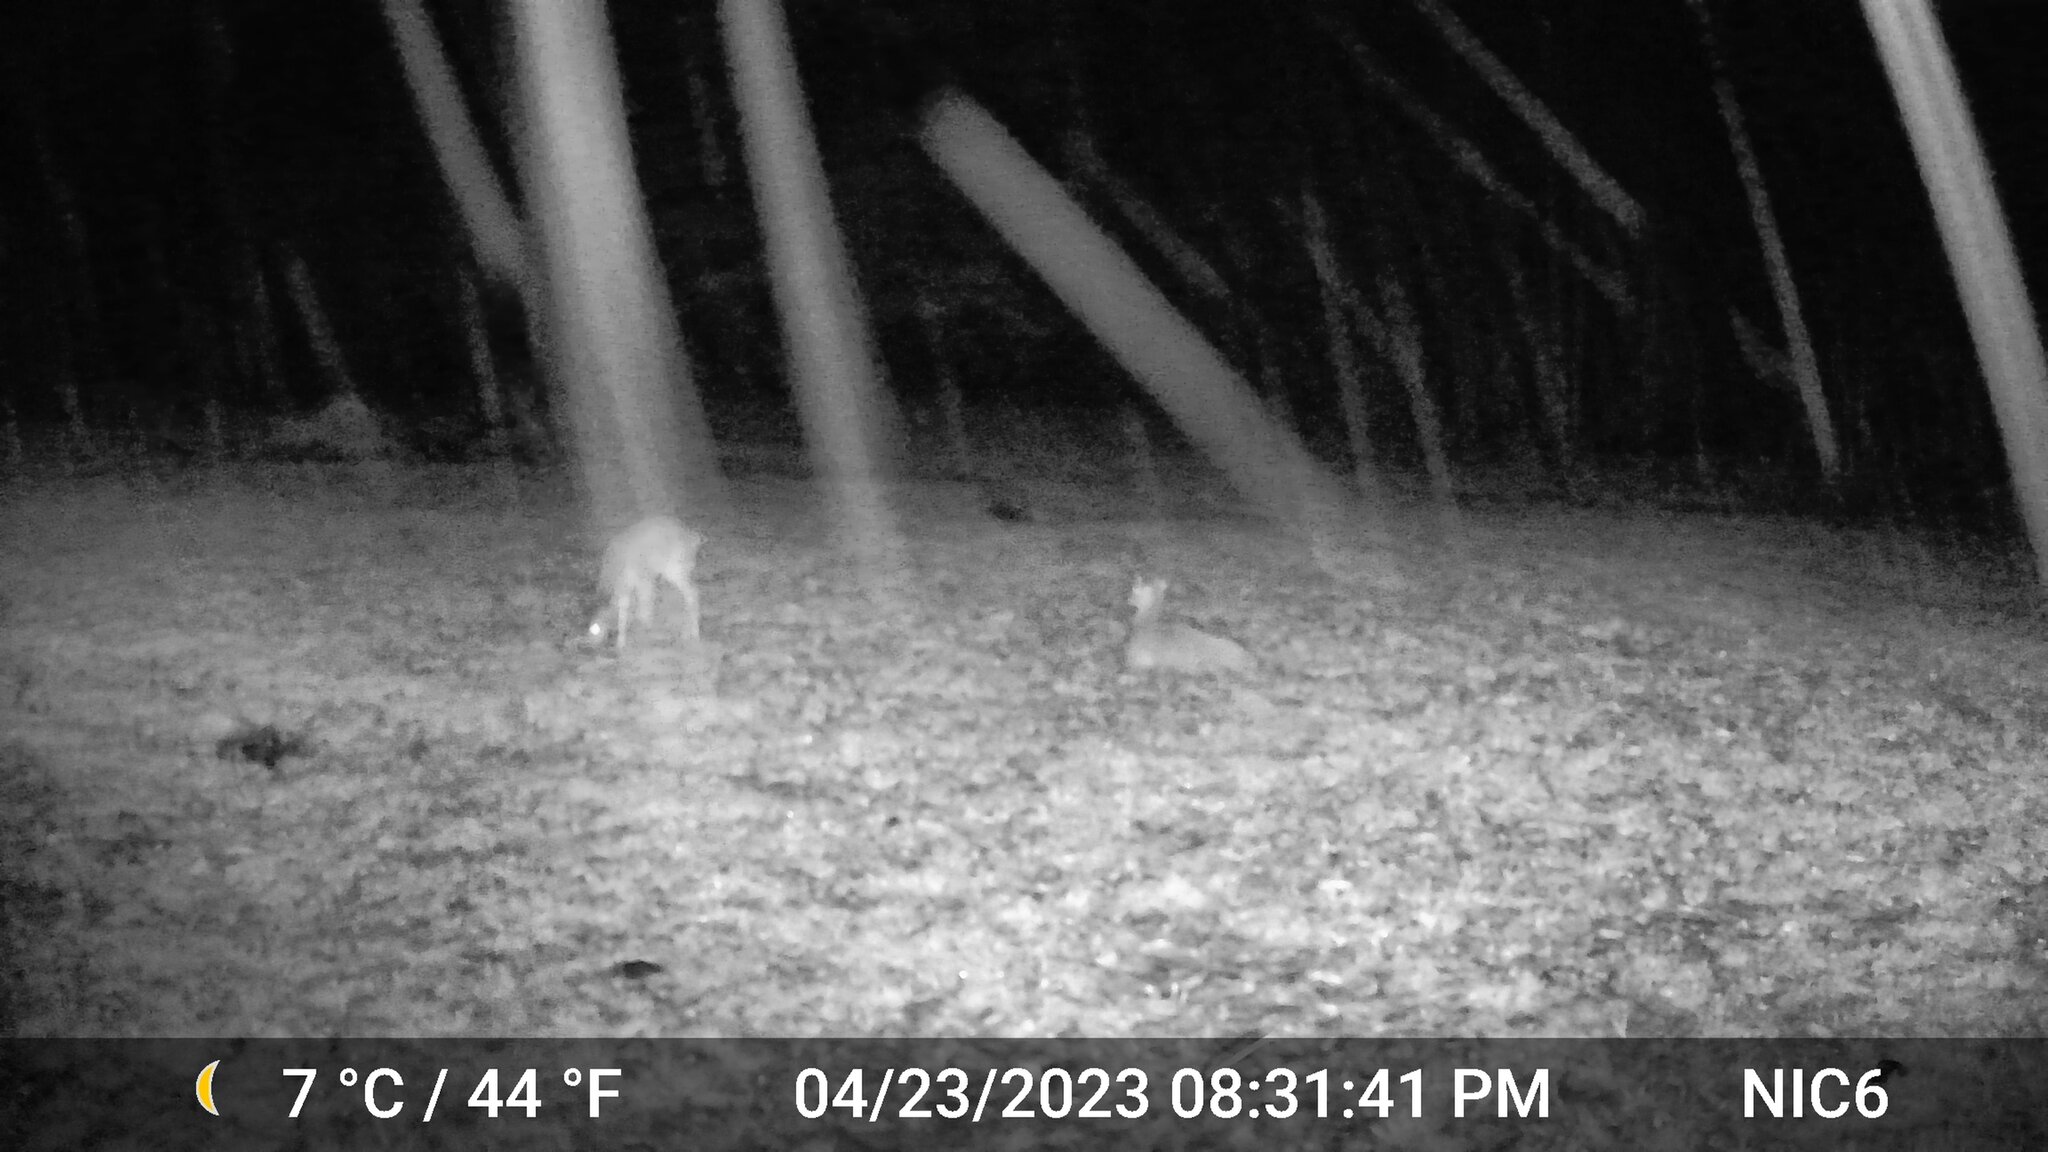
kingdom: Animalia
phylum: Chordata
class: Mammalia
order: Artiodactyla
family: Cervidae
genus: Odocoileus
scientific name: Odocoileus virginianus
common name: White-tailed deer
